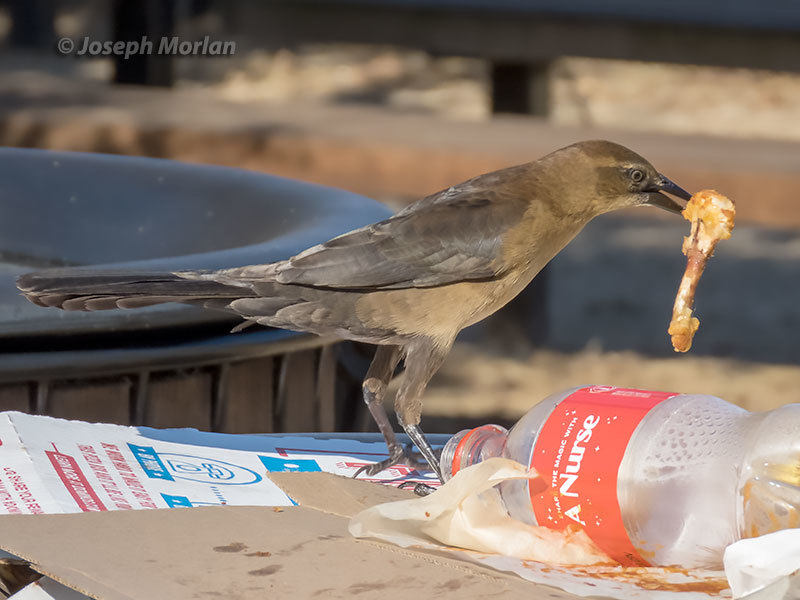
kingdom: Animalia
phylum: Chordata
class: Aves
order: Passeriformes
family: Icteridae
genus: Quiscalus
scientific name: Quiscalus mexicanus
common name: Great-tailed grackle
